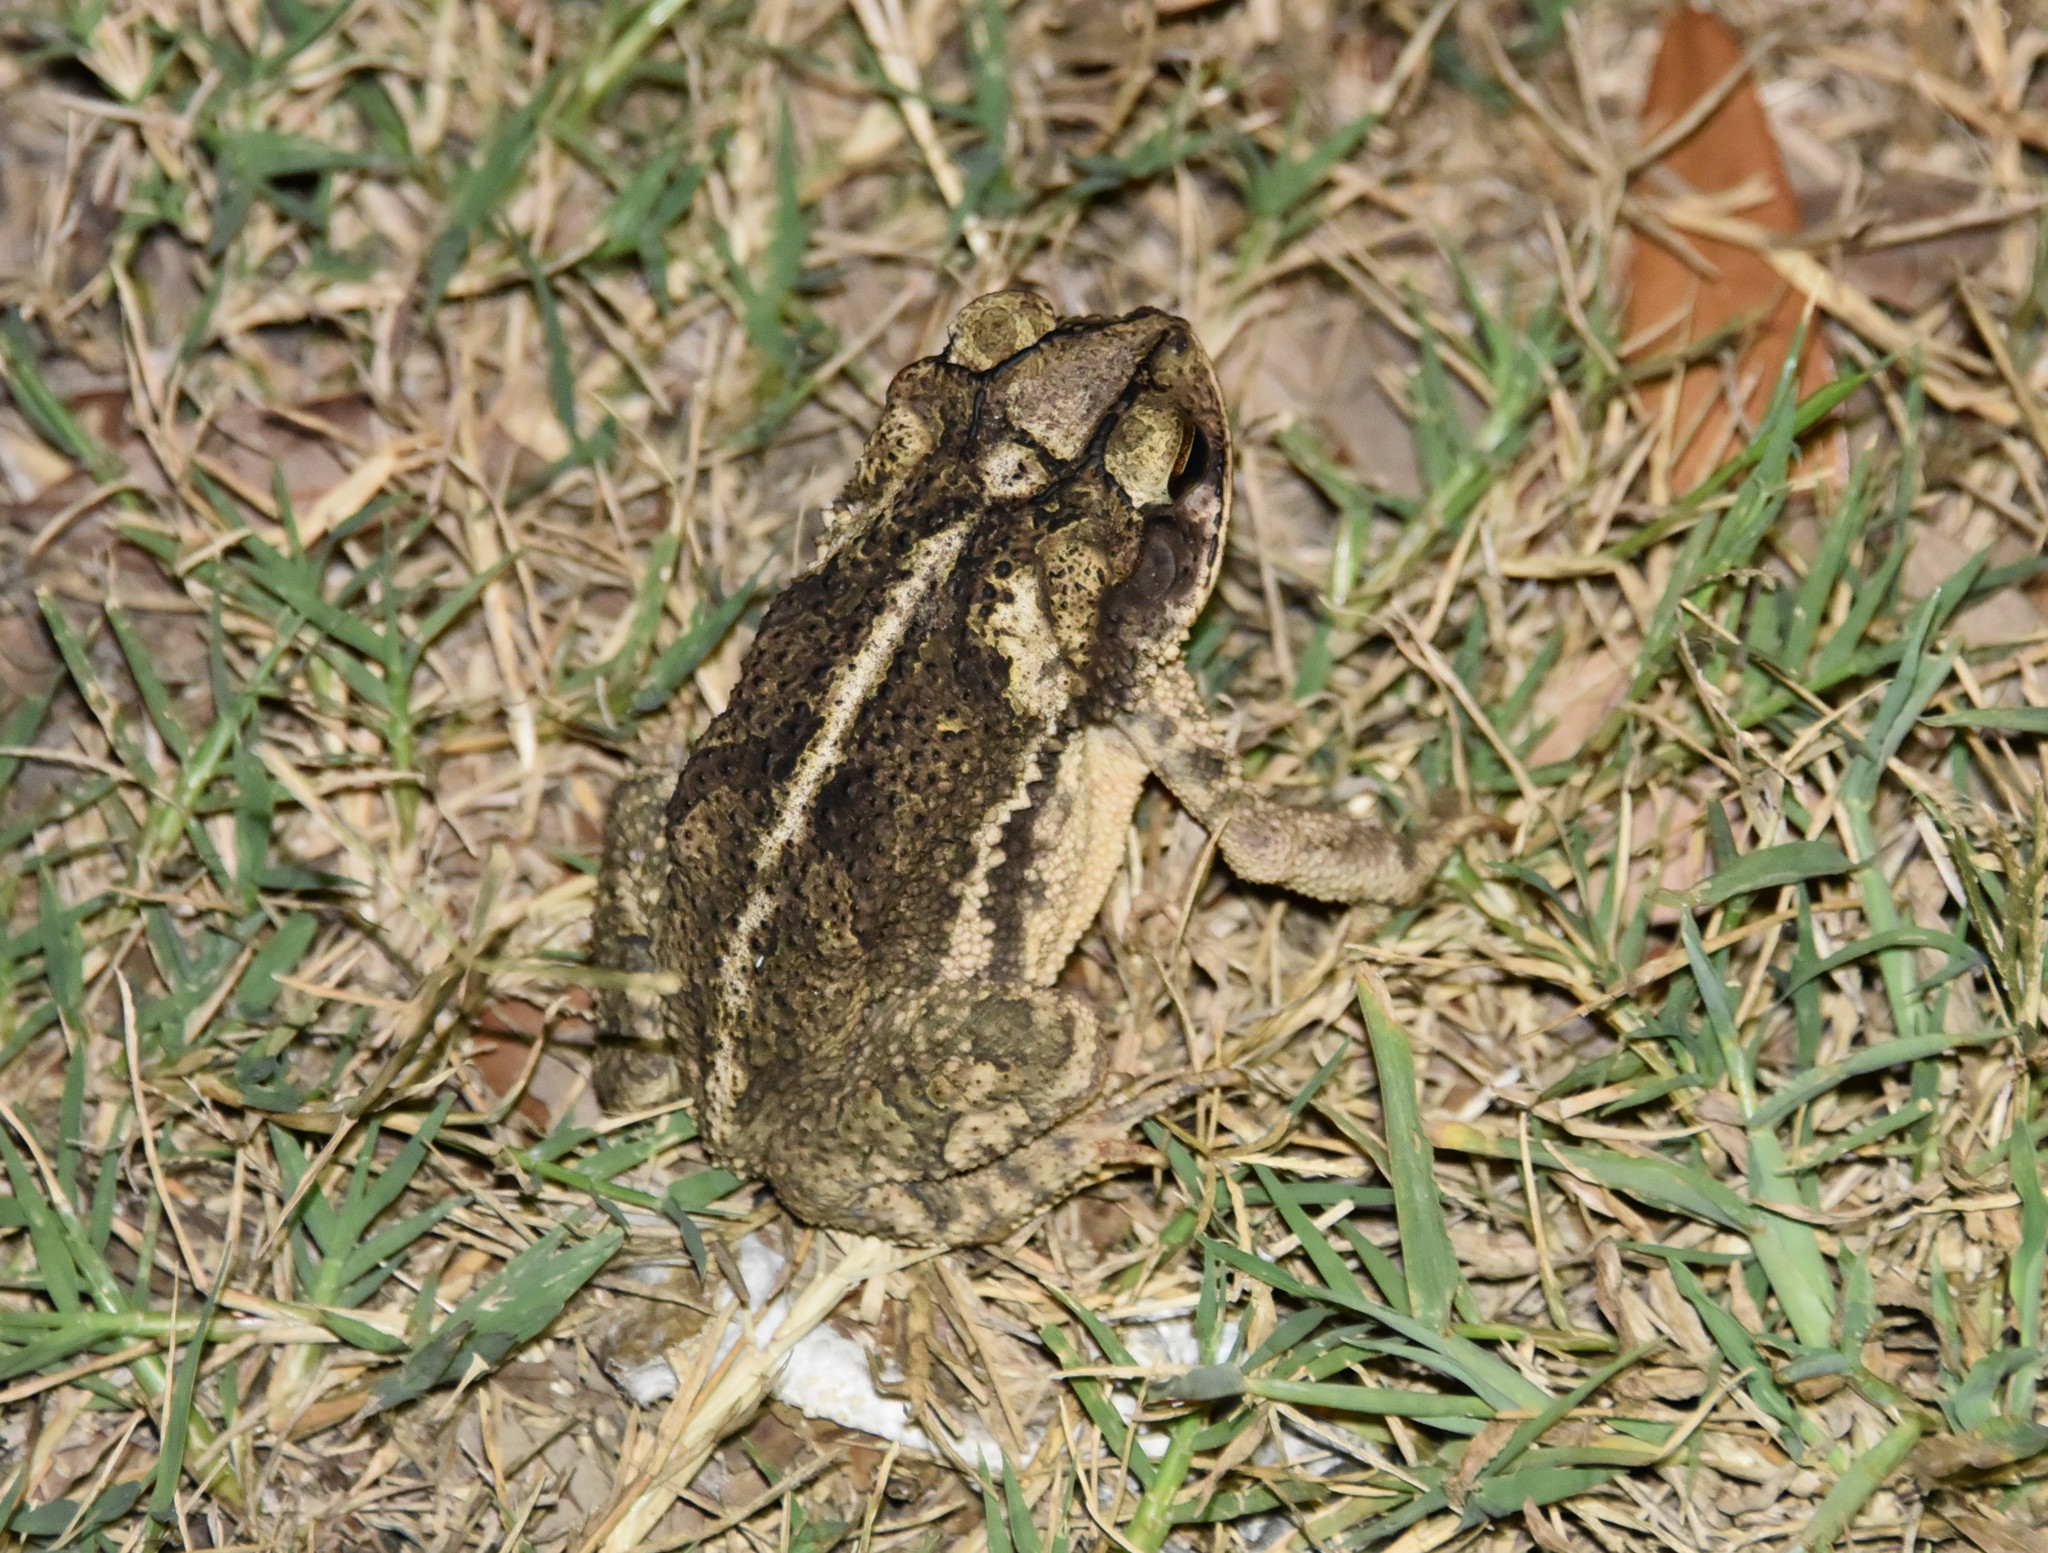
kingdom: Animalia
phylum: Chordata
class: Amphibia
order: Anura
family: Bufonidae
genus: Incilius
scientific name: Incilius nebulifer
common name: Gulf coast toad
